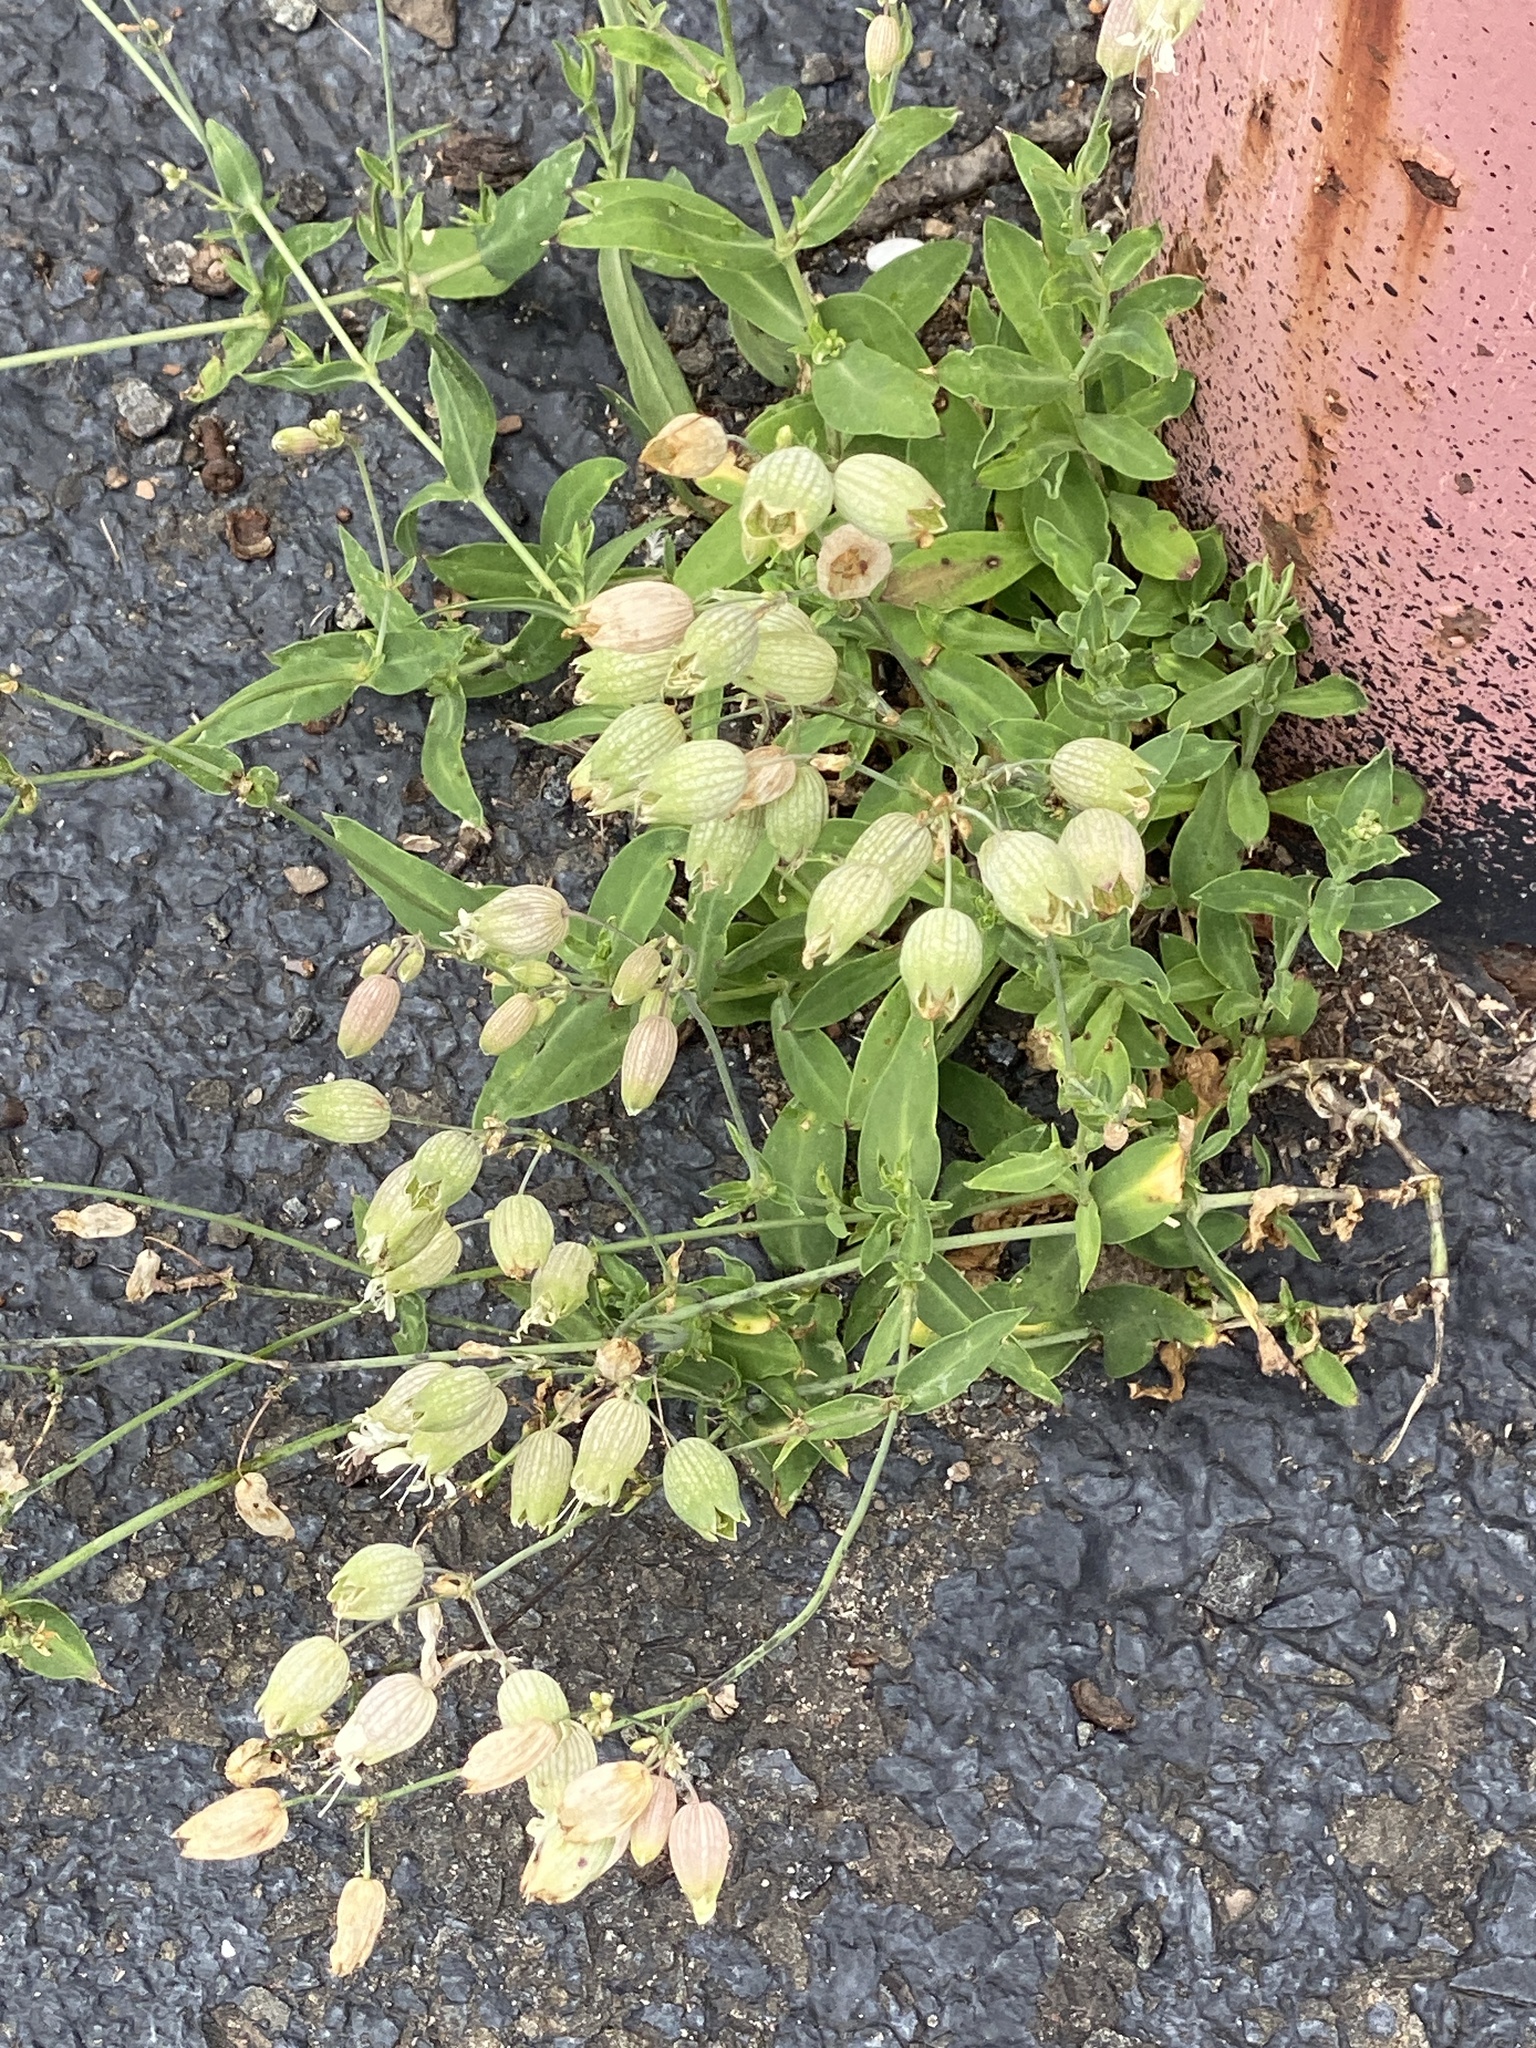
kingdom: Plantae
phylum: Tracheophyta
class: Magnoliopsida
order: Caryophyllales
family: Caryophyllaceae
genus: Silene
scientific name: Silene vulgaris
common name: Bladder campion
